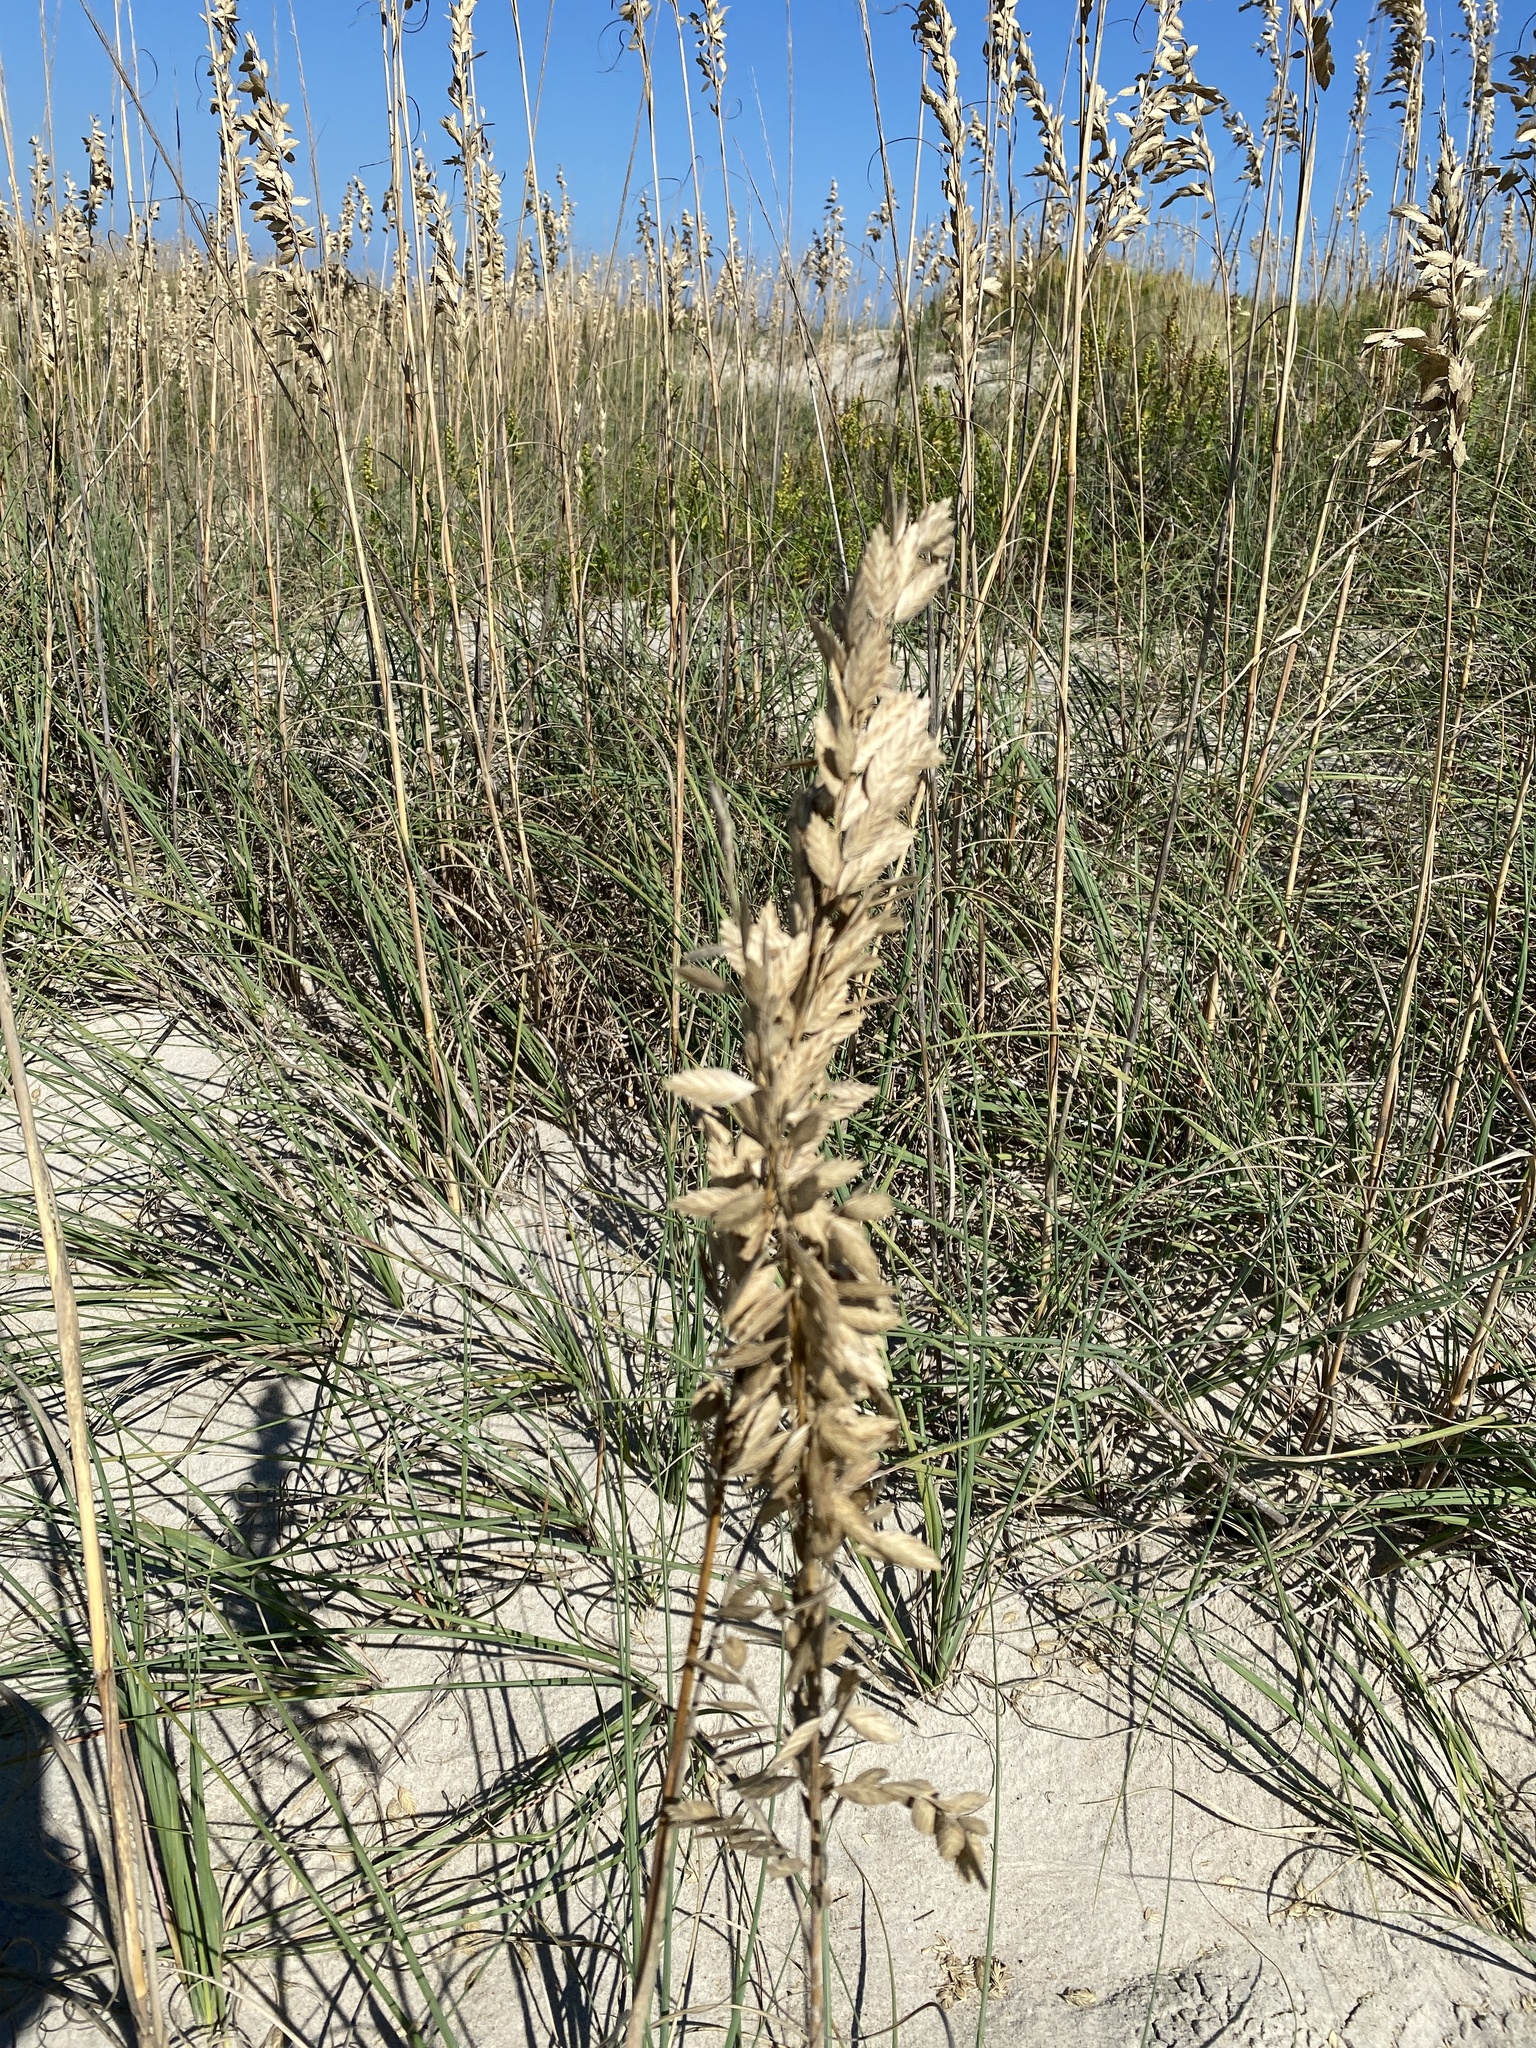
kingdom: Plantae
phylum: Tracheophyta
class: Liliopsida
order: Poales
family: Poaceae
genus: Uniola
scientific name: Uniola paniculata
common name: Seaside-oats
